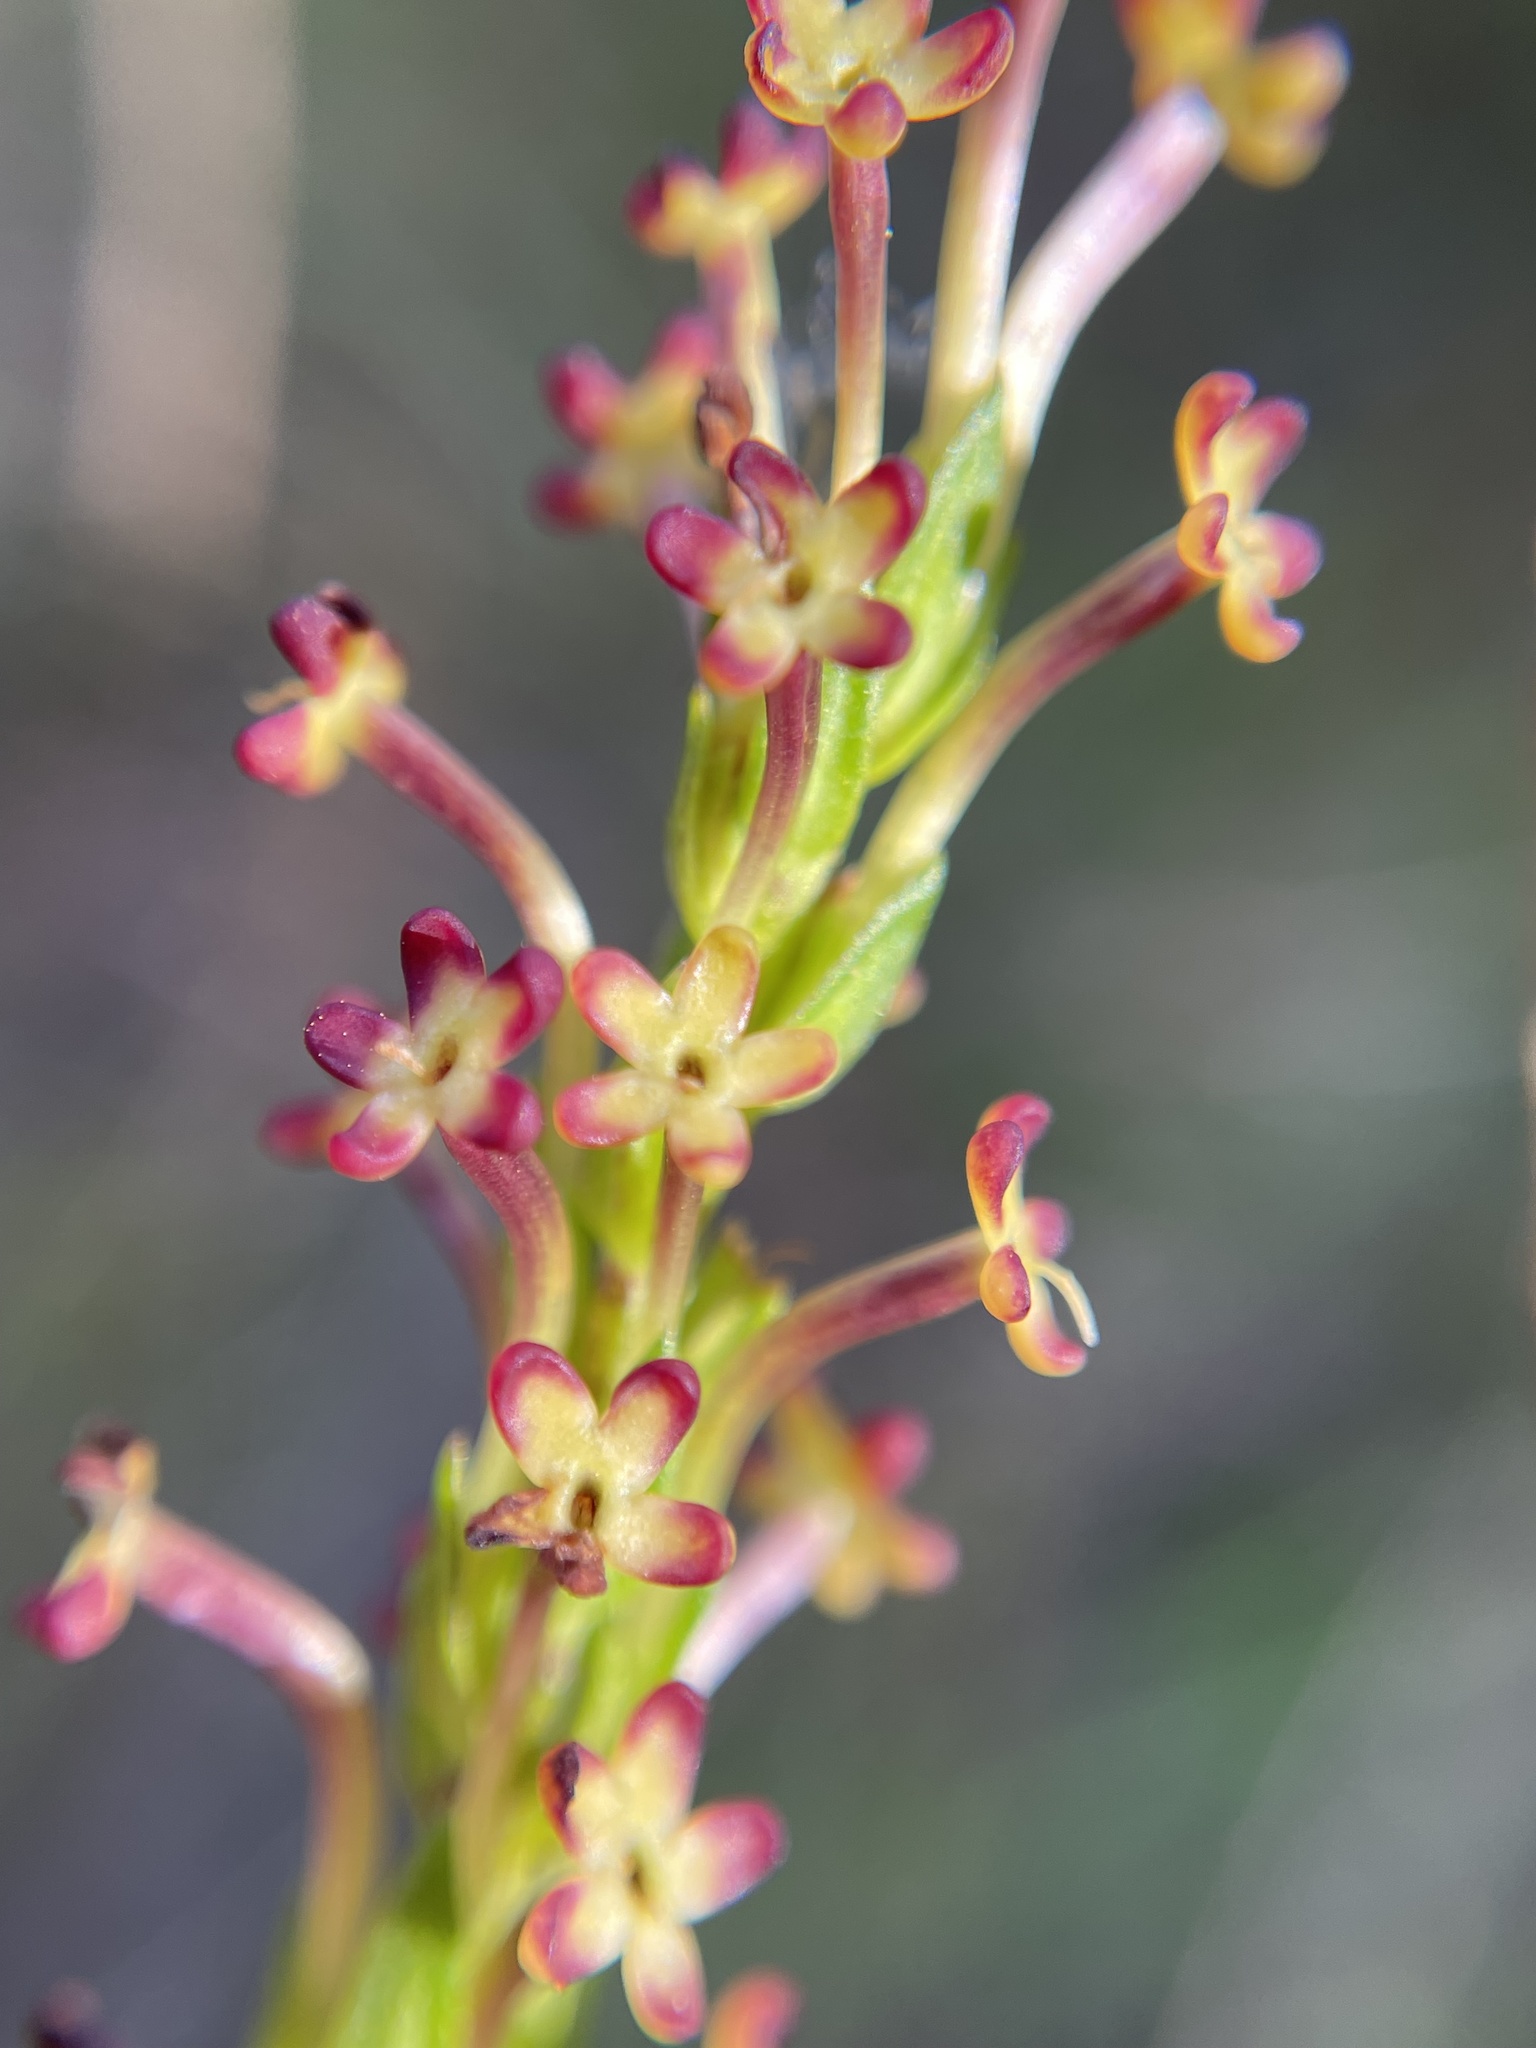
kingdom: Plantae
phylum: Tracheophyta
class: Magnoliopsida
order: Lamiales
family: Scrophulariaceae
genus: Microdon
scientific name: Microdon dubius
